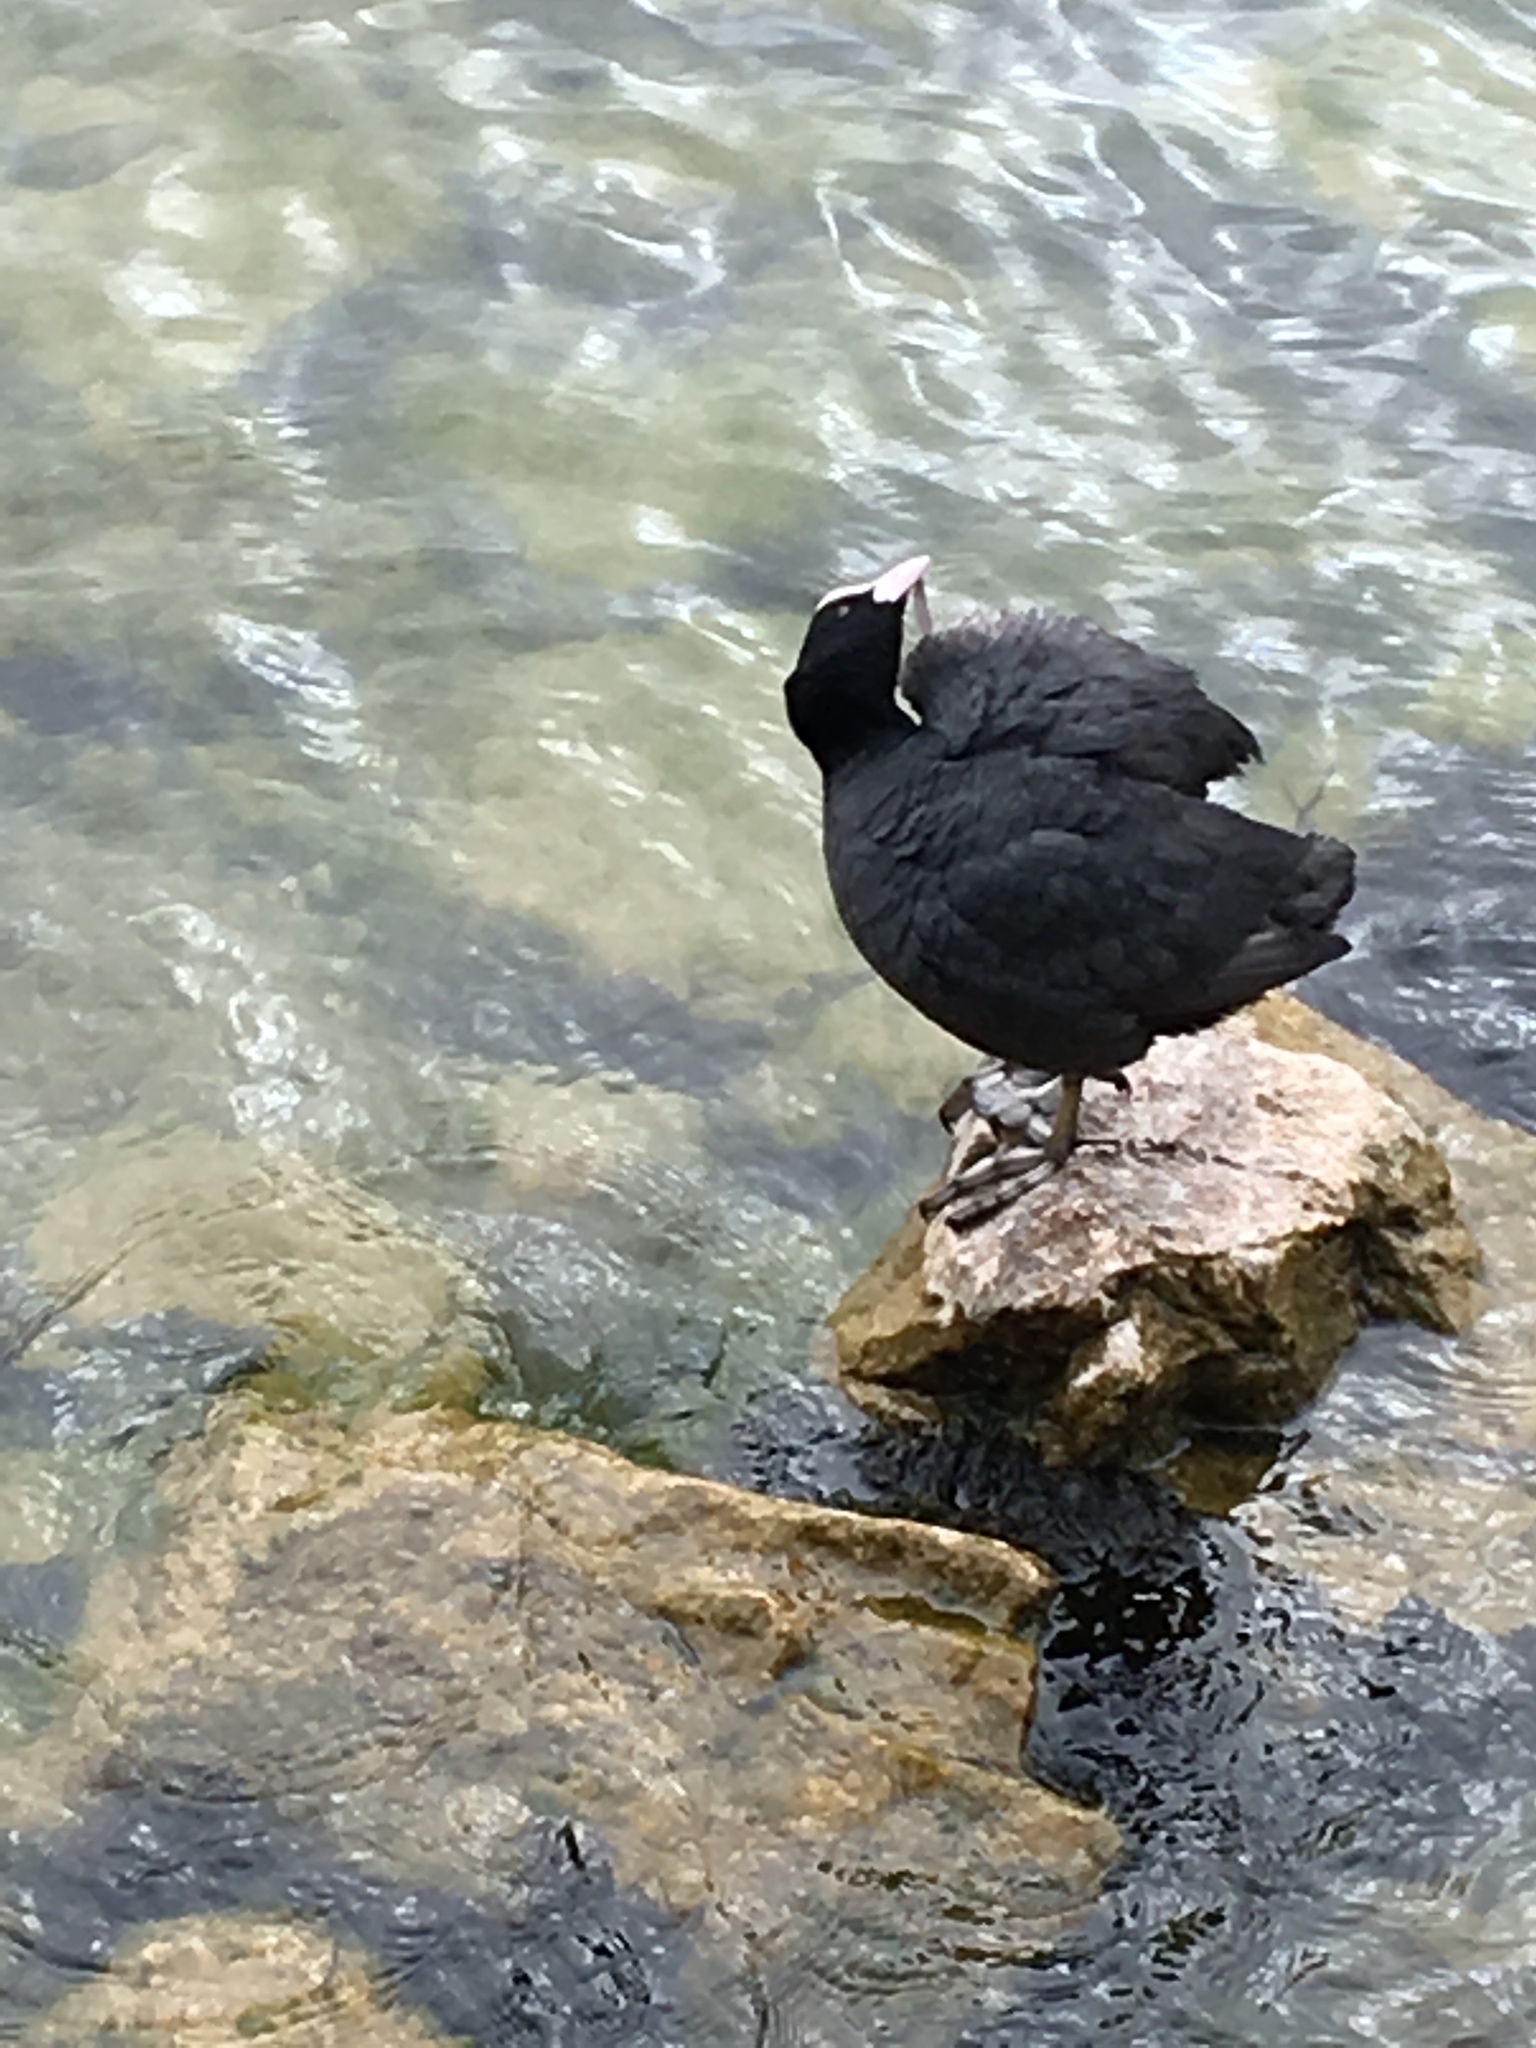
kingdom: Animalia
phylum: Chordata
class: Aves
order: Gruiformes
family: Rallidae
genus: Fulica
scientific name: Fulica atra
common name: Eurasian coot
